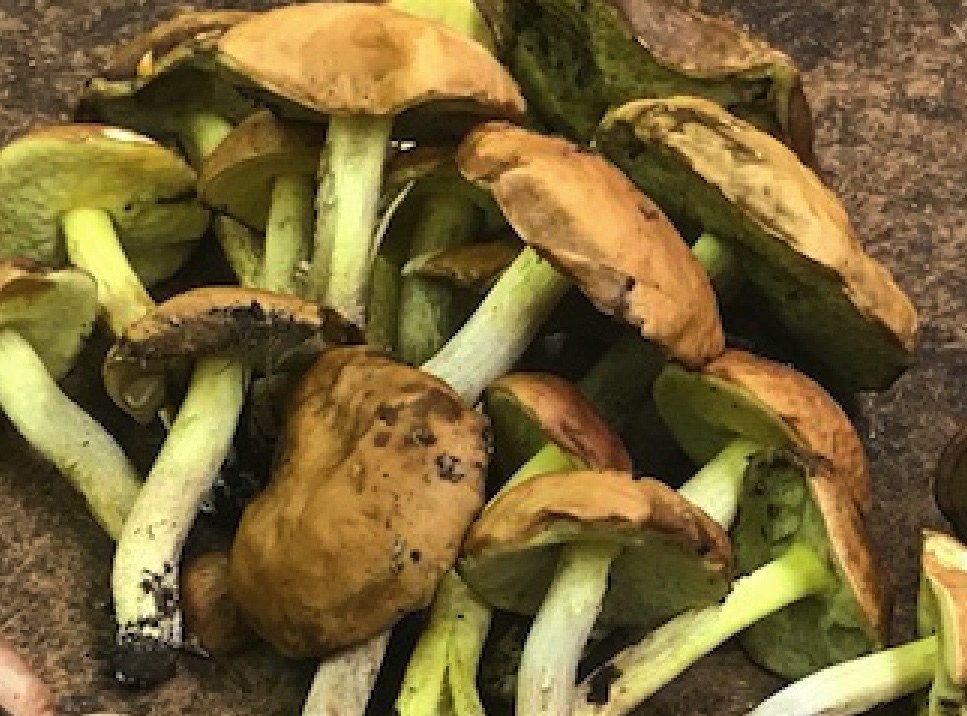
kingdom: Fungi
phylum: Basidiomycota
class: Agaricomycetes
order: Boletales
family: Boletaceae
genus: Hemileccinum
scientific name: Hemileccinum subglabripes
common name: Smoothish-stemmed bolete
